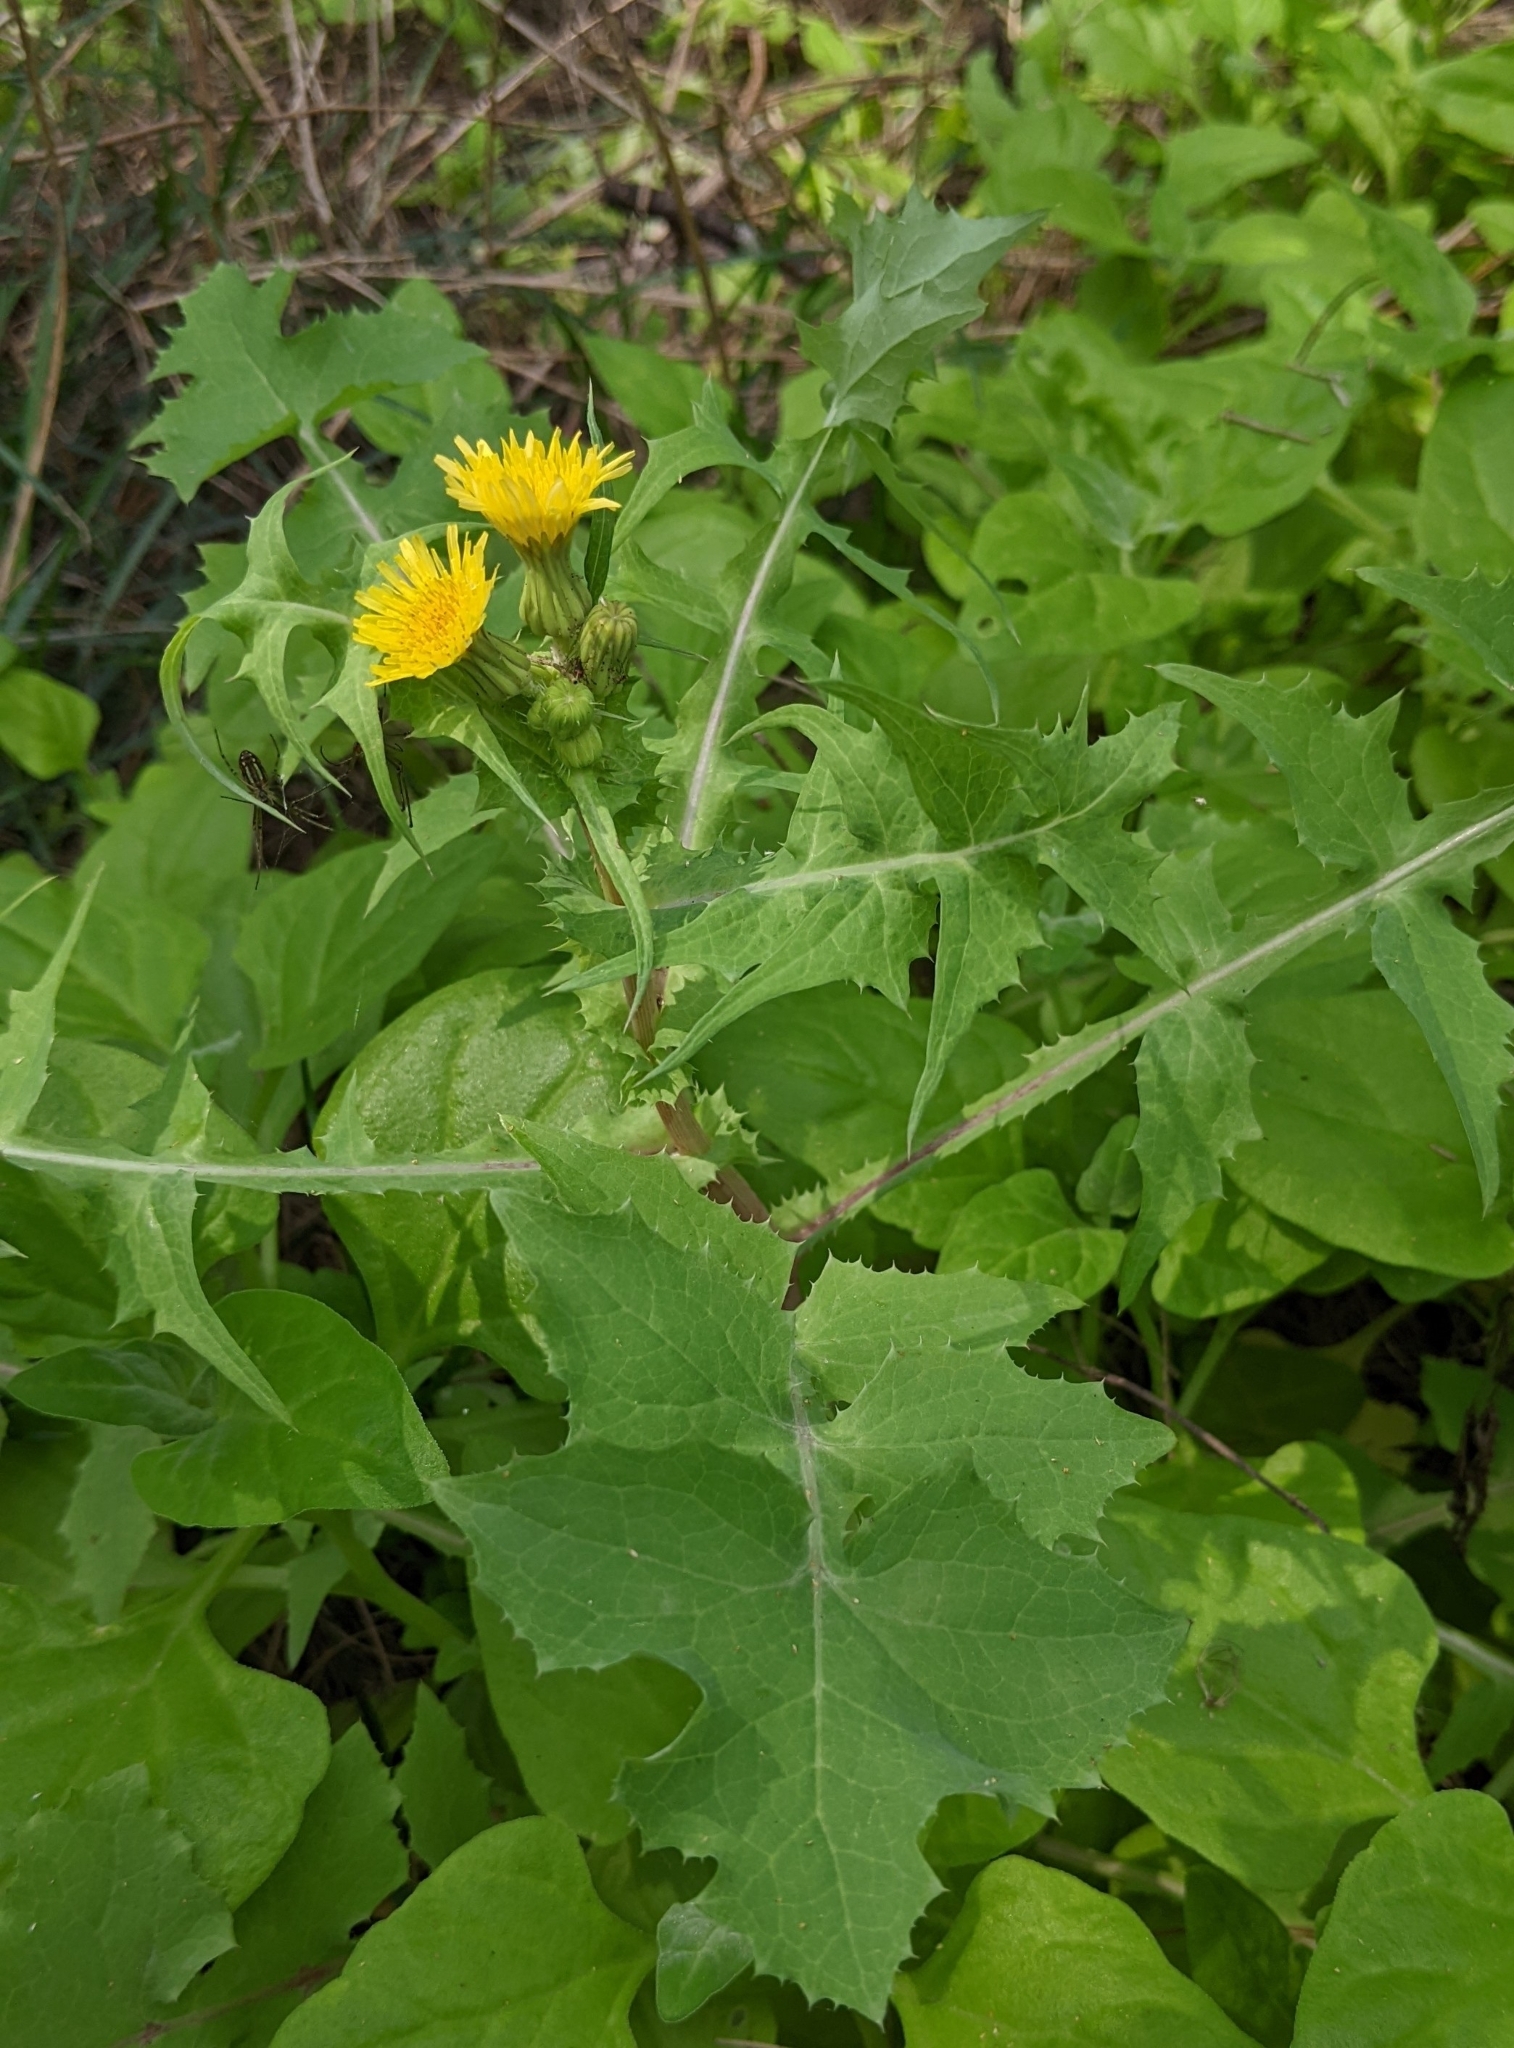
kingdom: Plantae
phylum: Tracheophyta
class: Magnoliopsida
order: Asterales
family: Asteraceae
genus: Sonchus
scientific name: Sonchus oleraceus
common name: Common sowthistle
